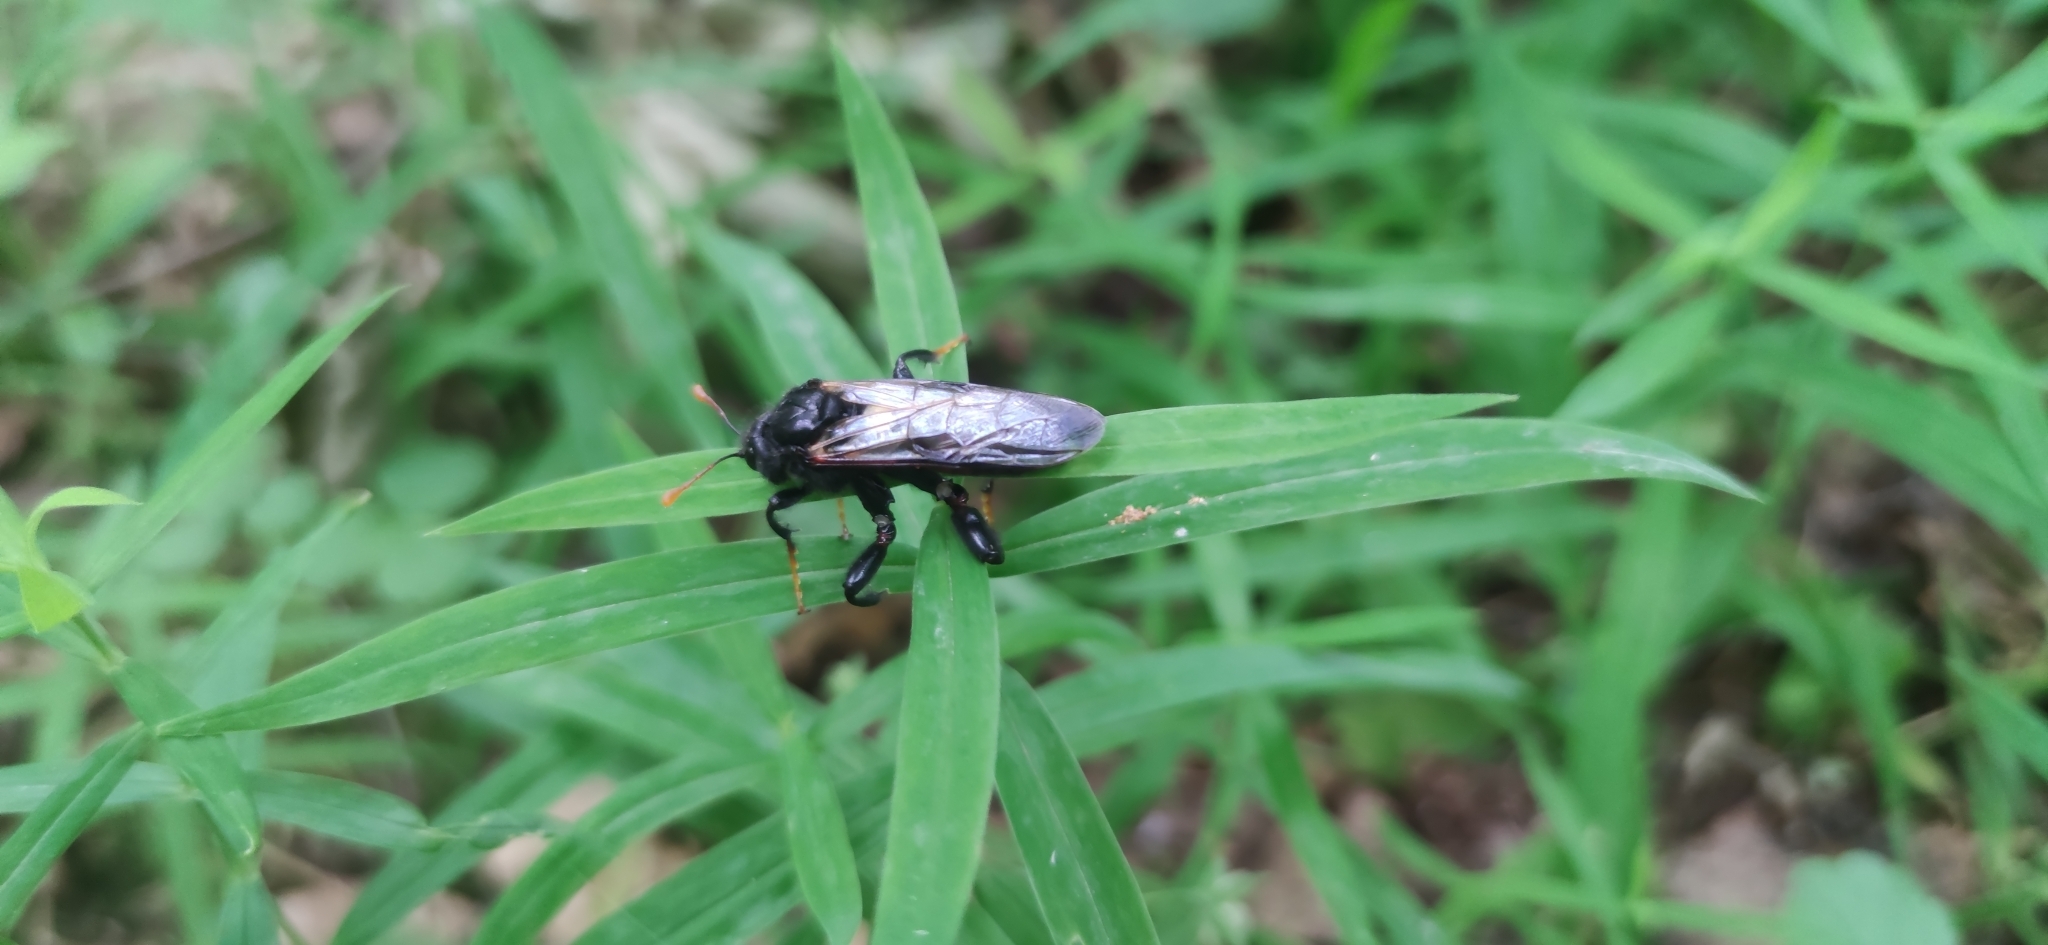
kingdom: Animalia
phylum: Arthropoda
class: Insecta
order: Hymenoptera
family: Cimbicidae
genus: Cimbex
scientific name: Cimbex femoratus
